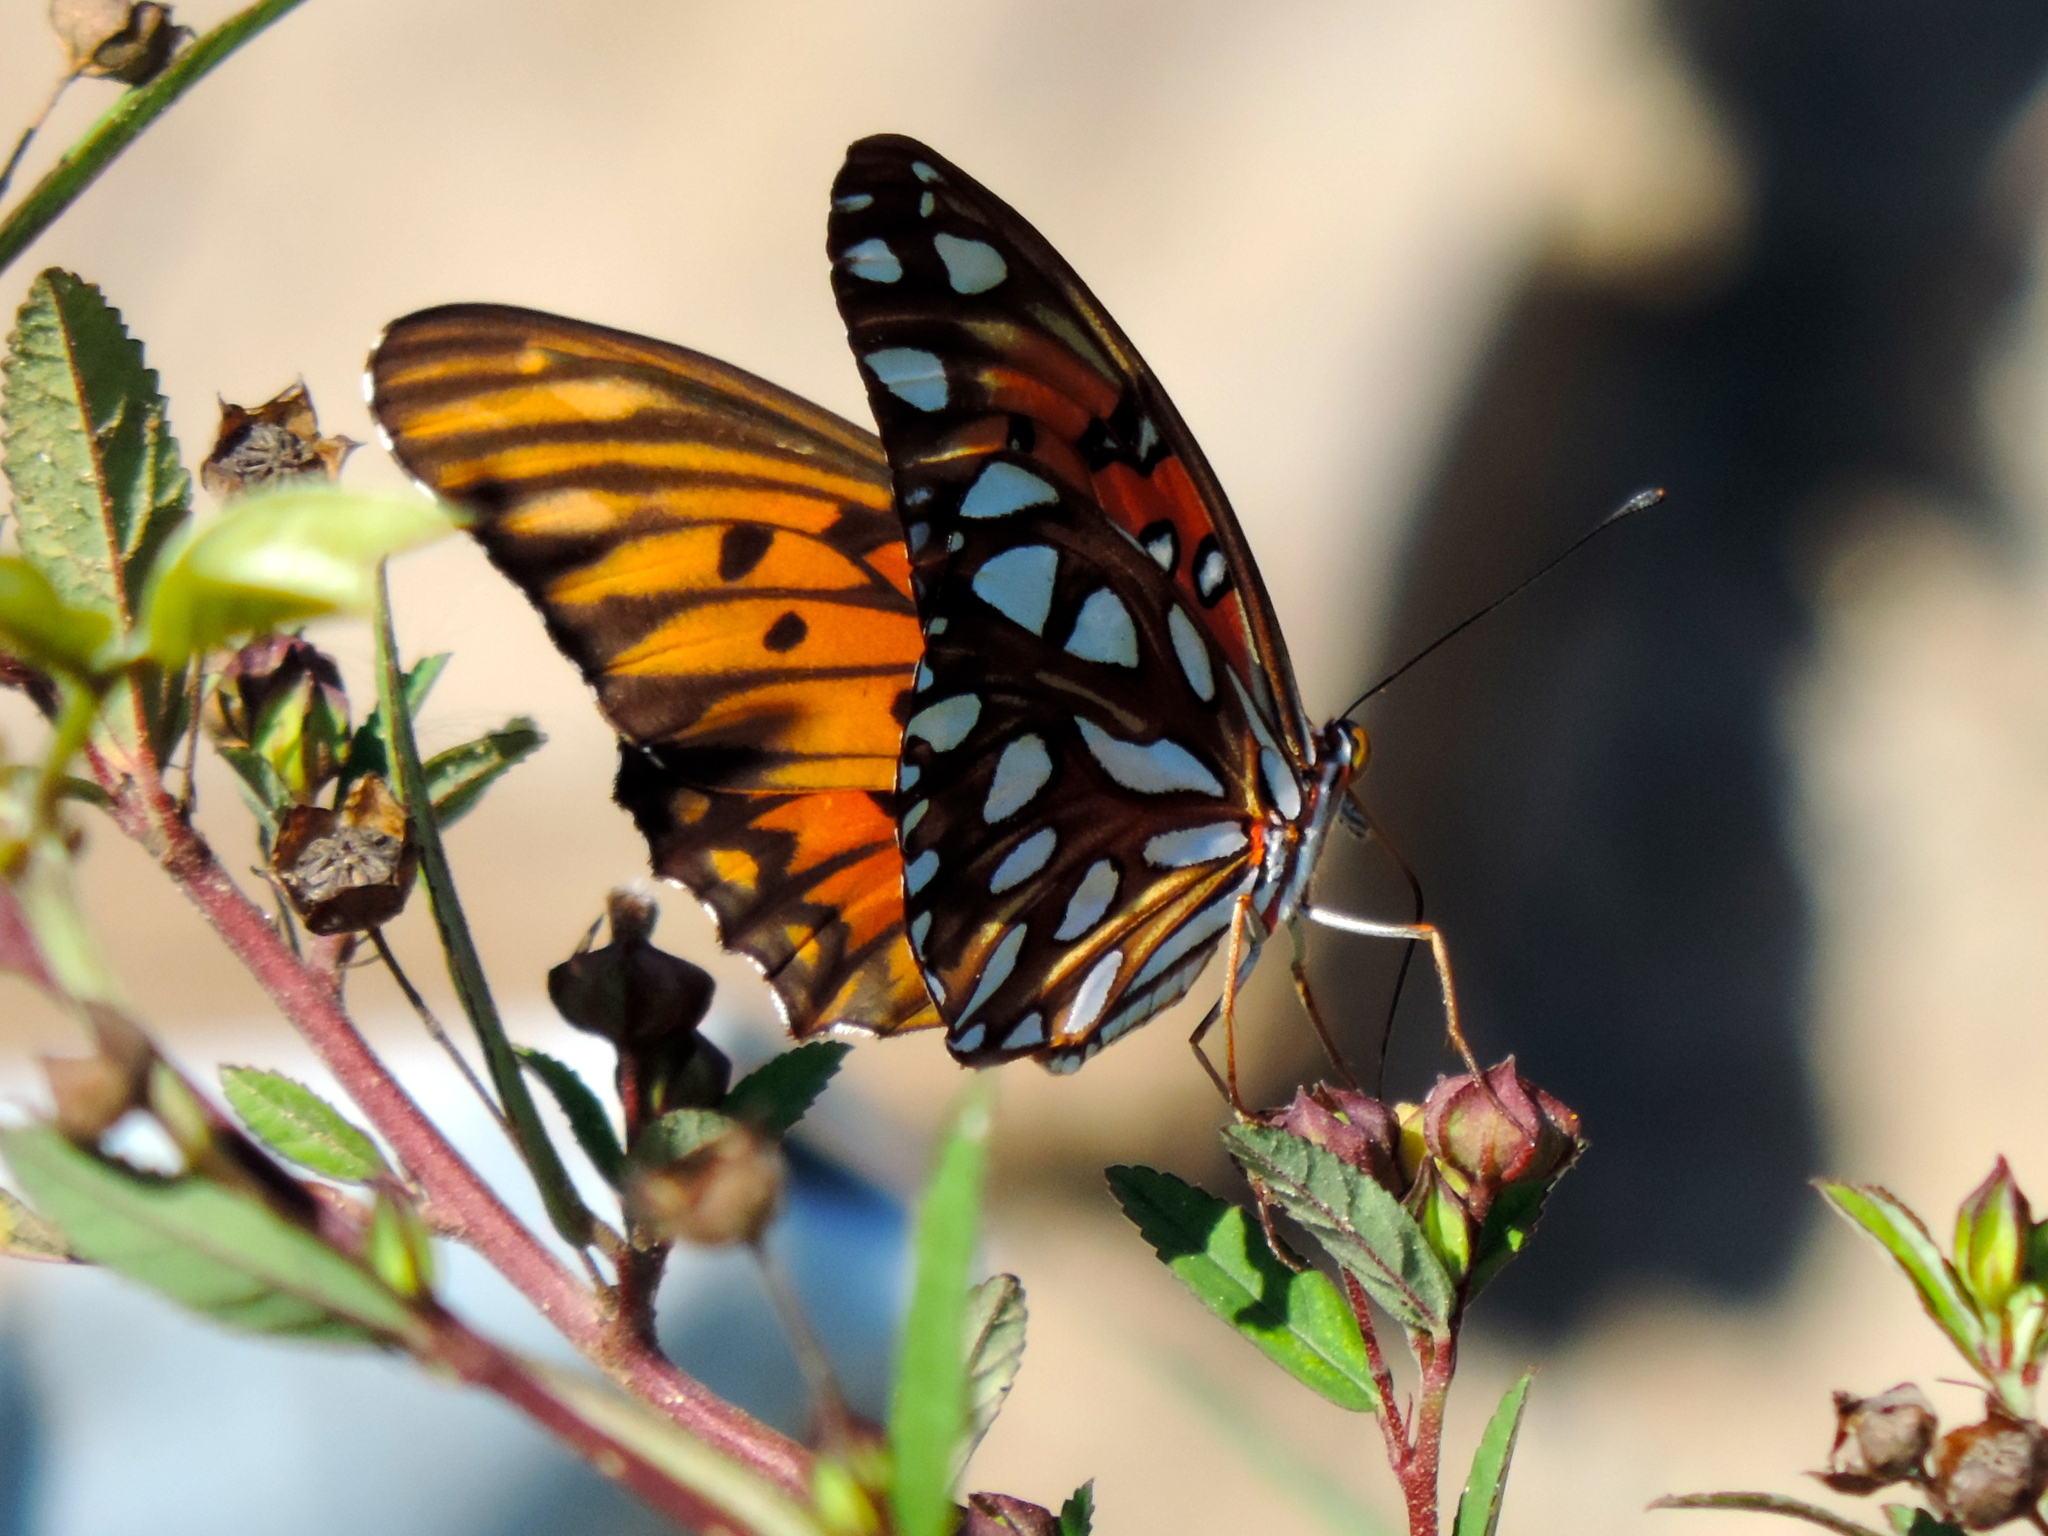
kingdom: Animalia
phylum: Arthropoda
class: Insecta
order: Lepidoptera
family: Nymphalidae
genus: Dione
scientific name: Dione vanillae
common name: Gulf fritillary
